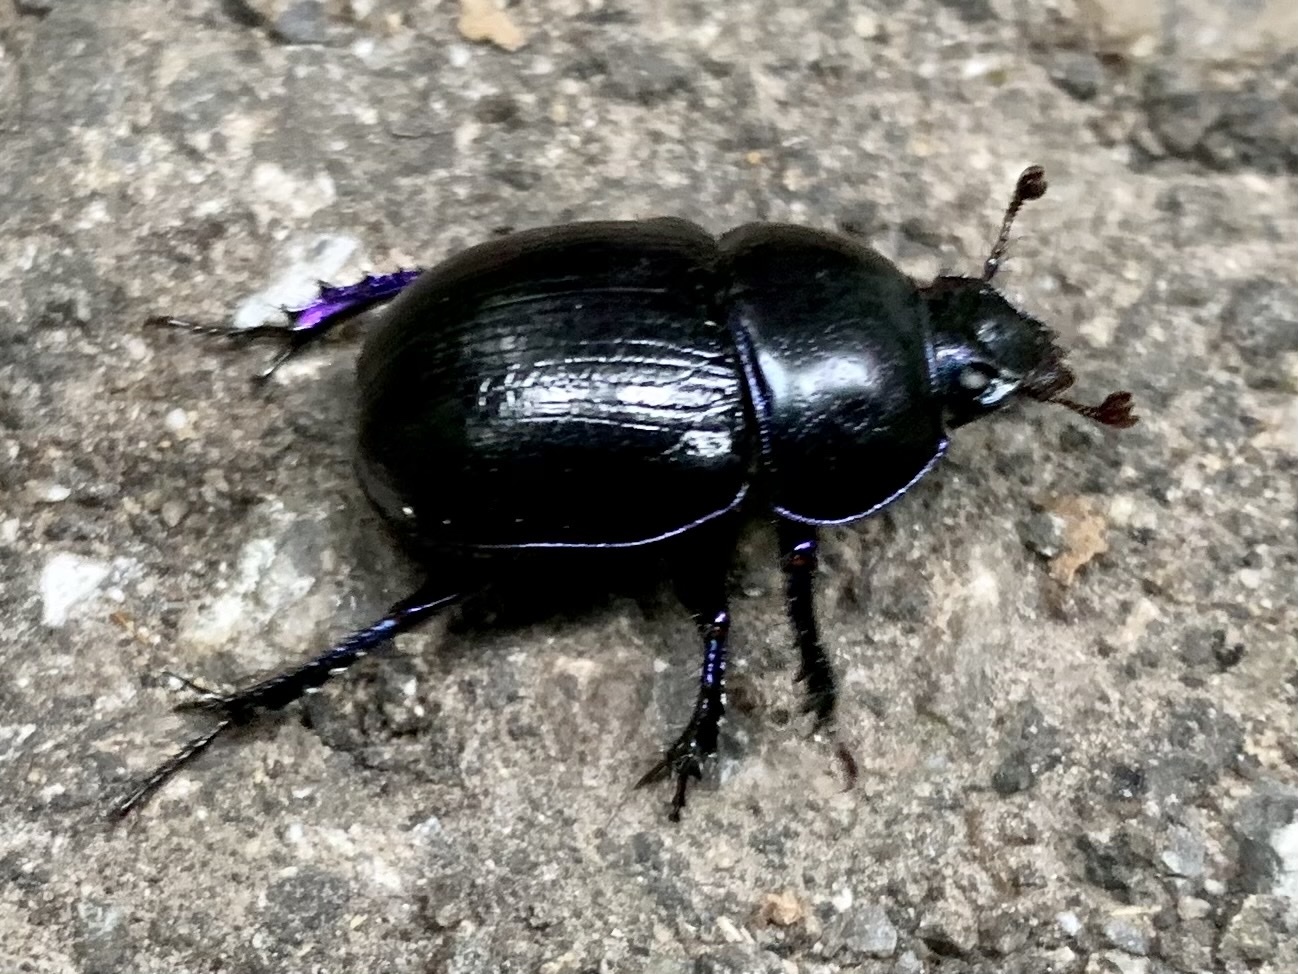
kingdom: Animalia
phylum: Arthropoda
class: Insecta
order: Coleoptera
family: Geotrupidae
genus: Anoplotrupes
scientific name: Anoplotrupes stercorosus
